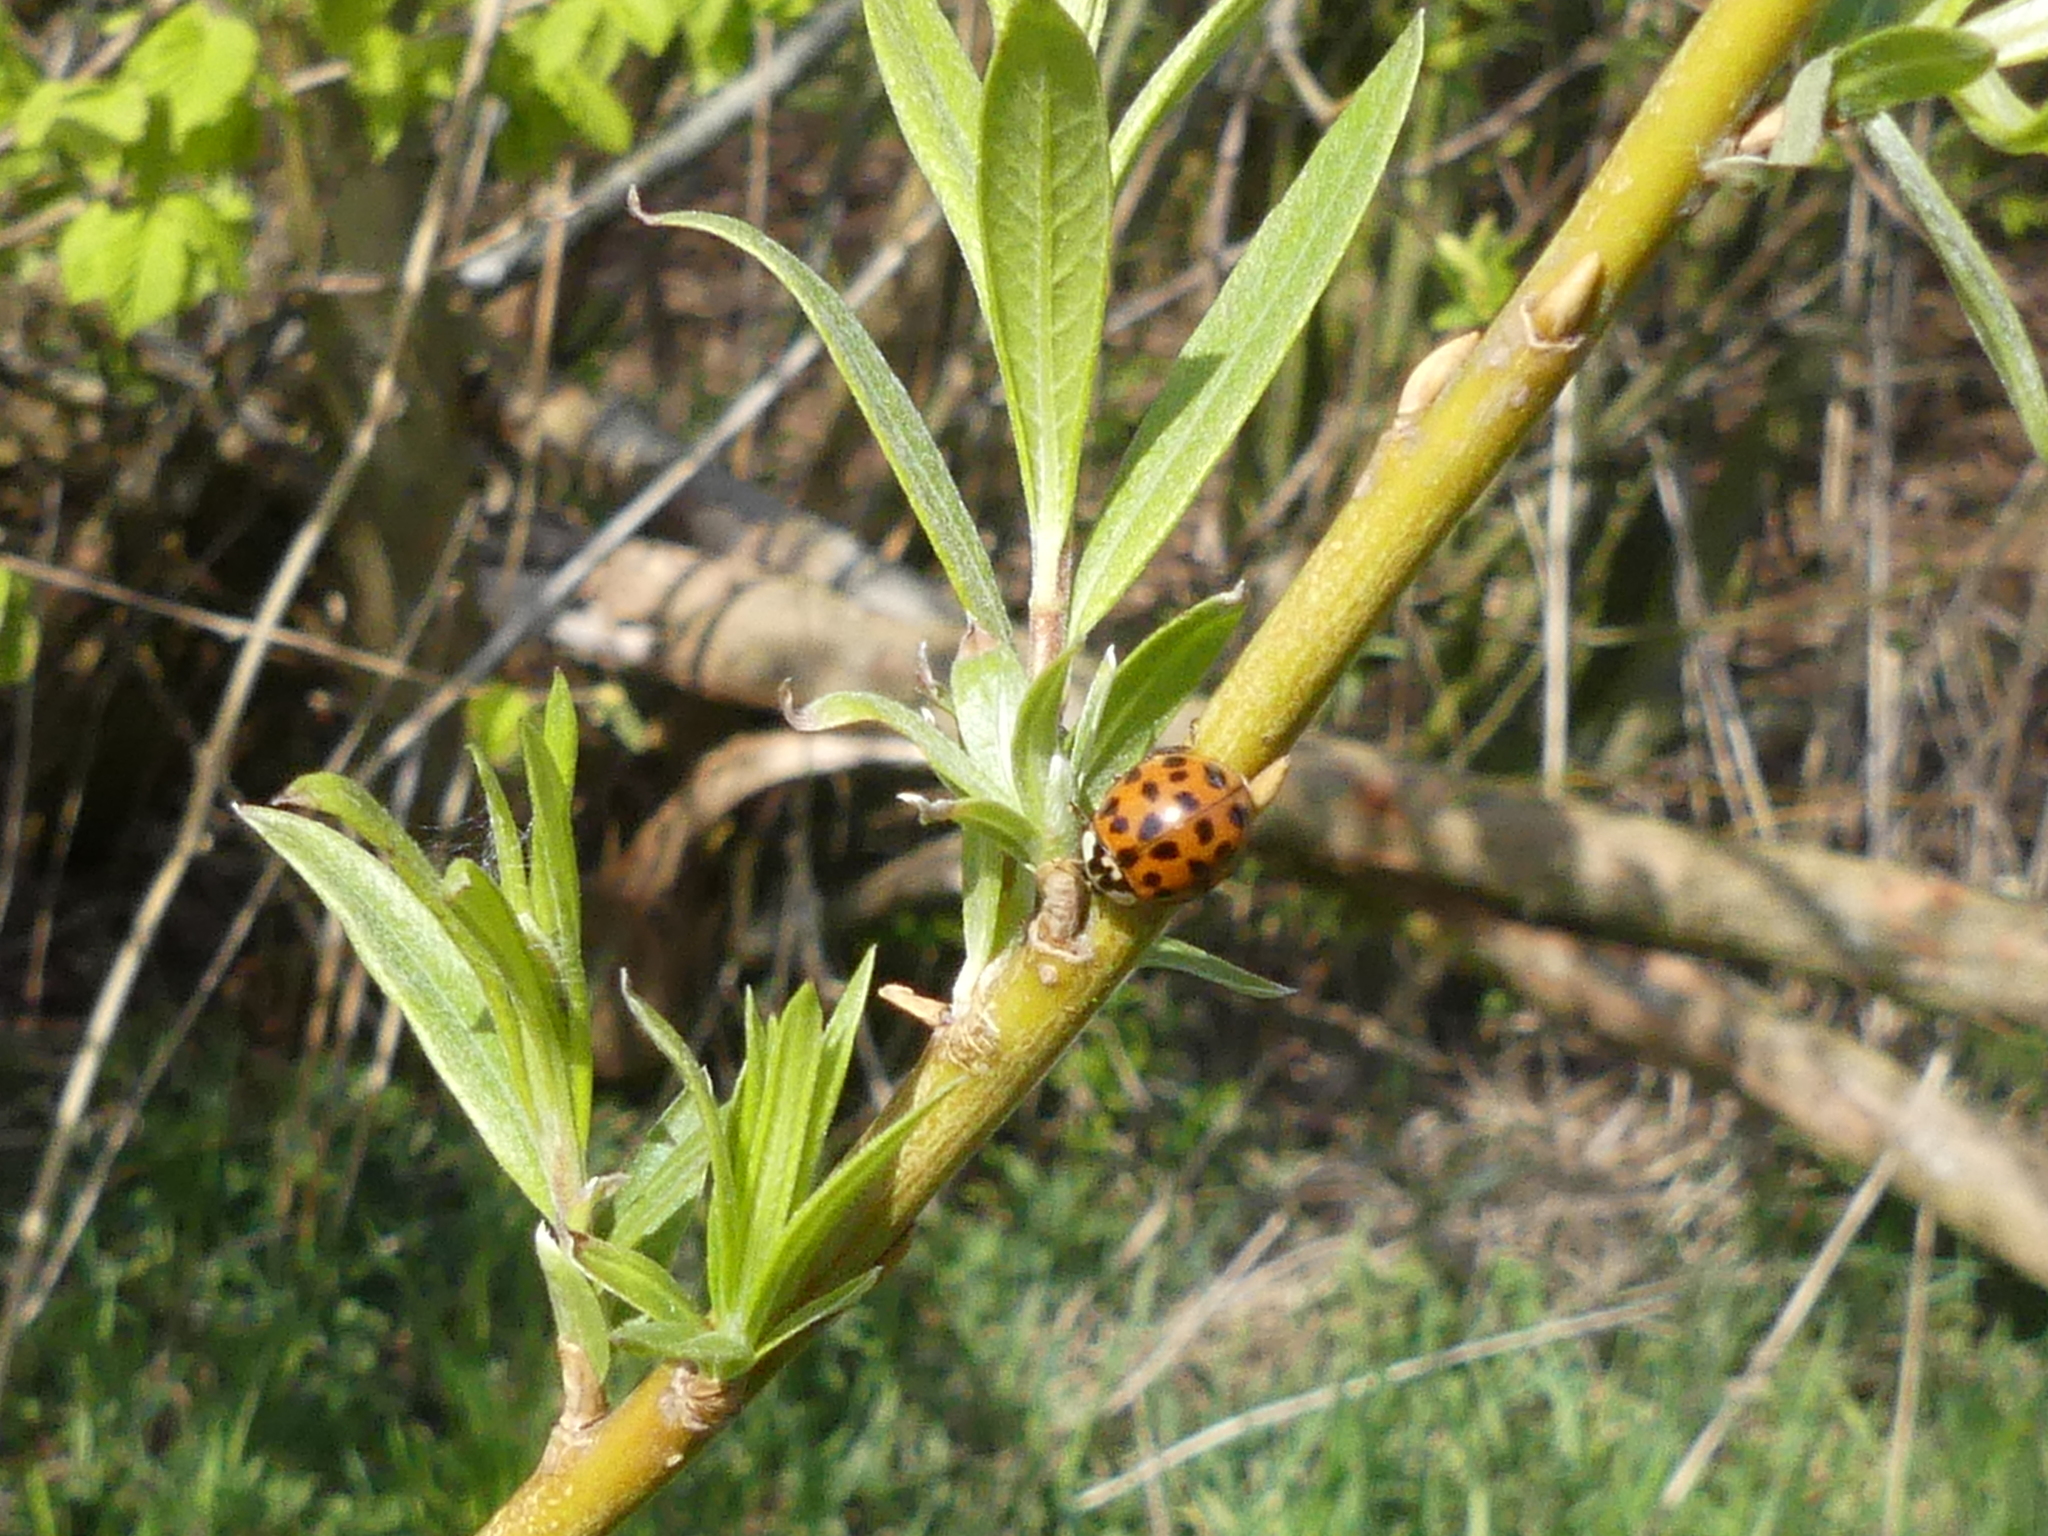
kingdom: Animalia
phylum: Arthropoda
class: Insecta
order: Coleoptera
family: Coccinellidae
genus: Harmonia
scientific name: Harmonia axyridis
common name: Harlequin ladybird
